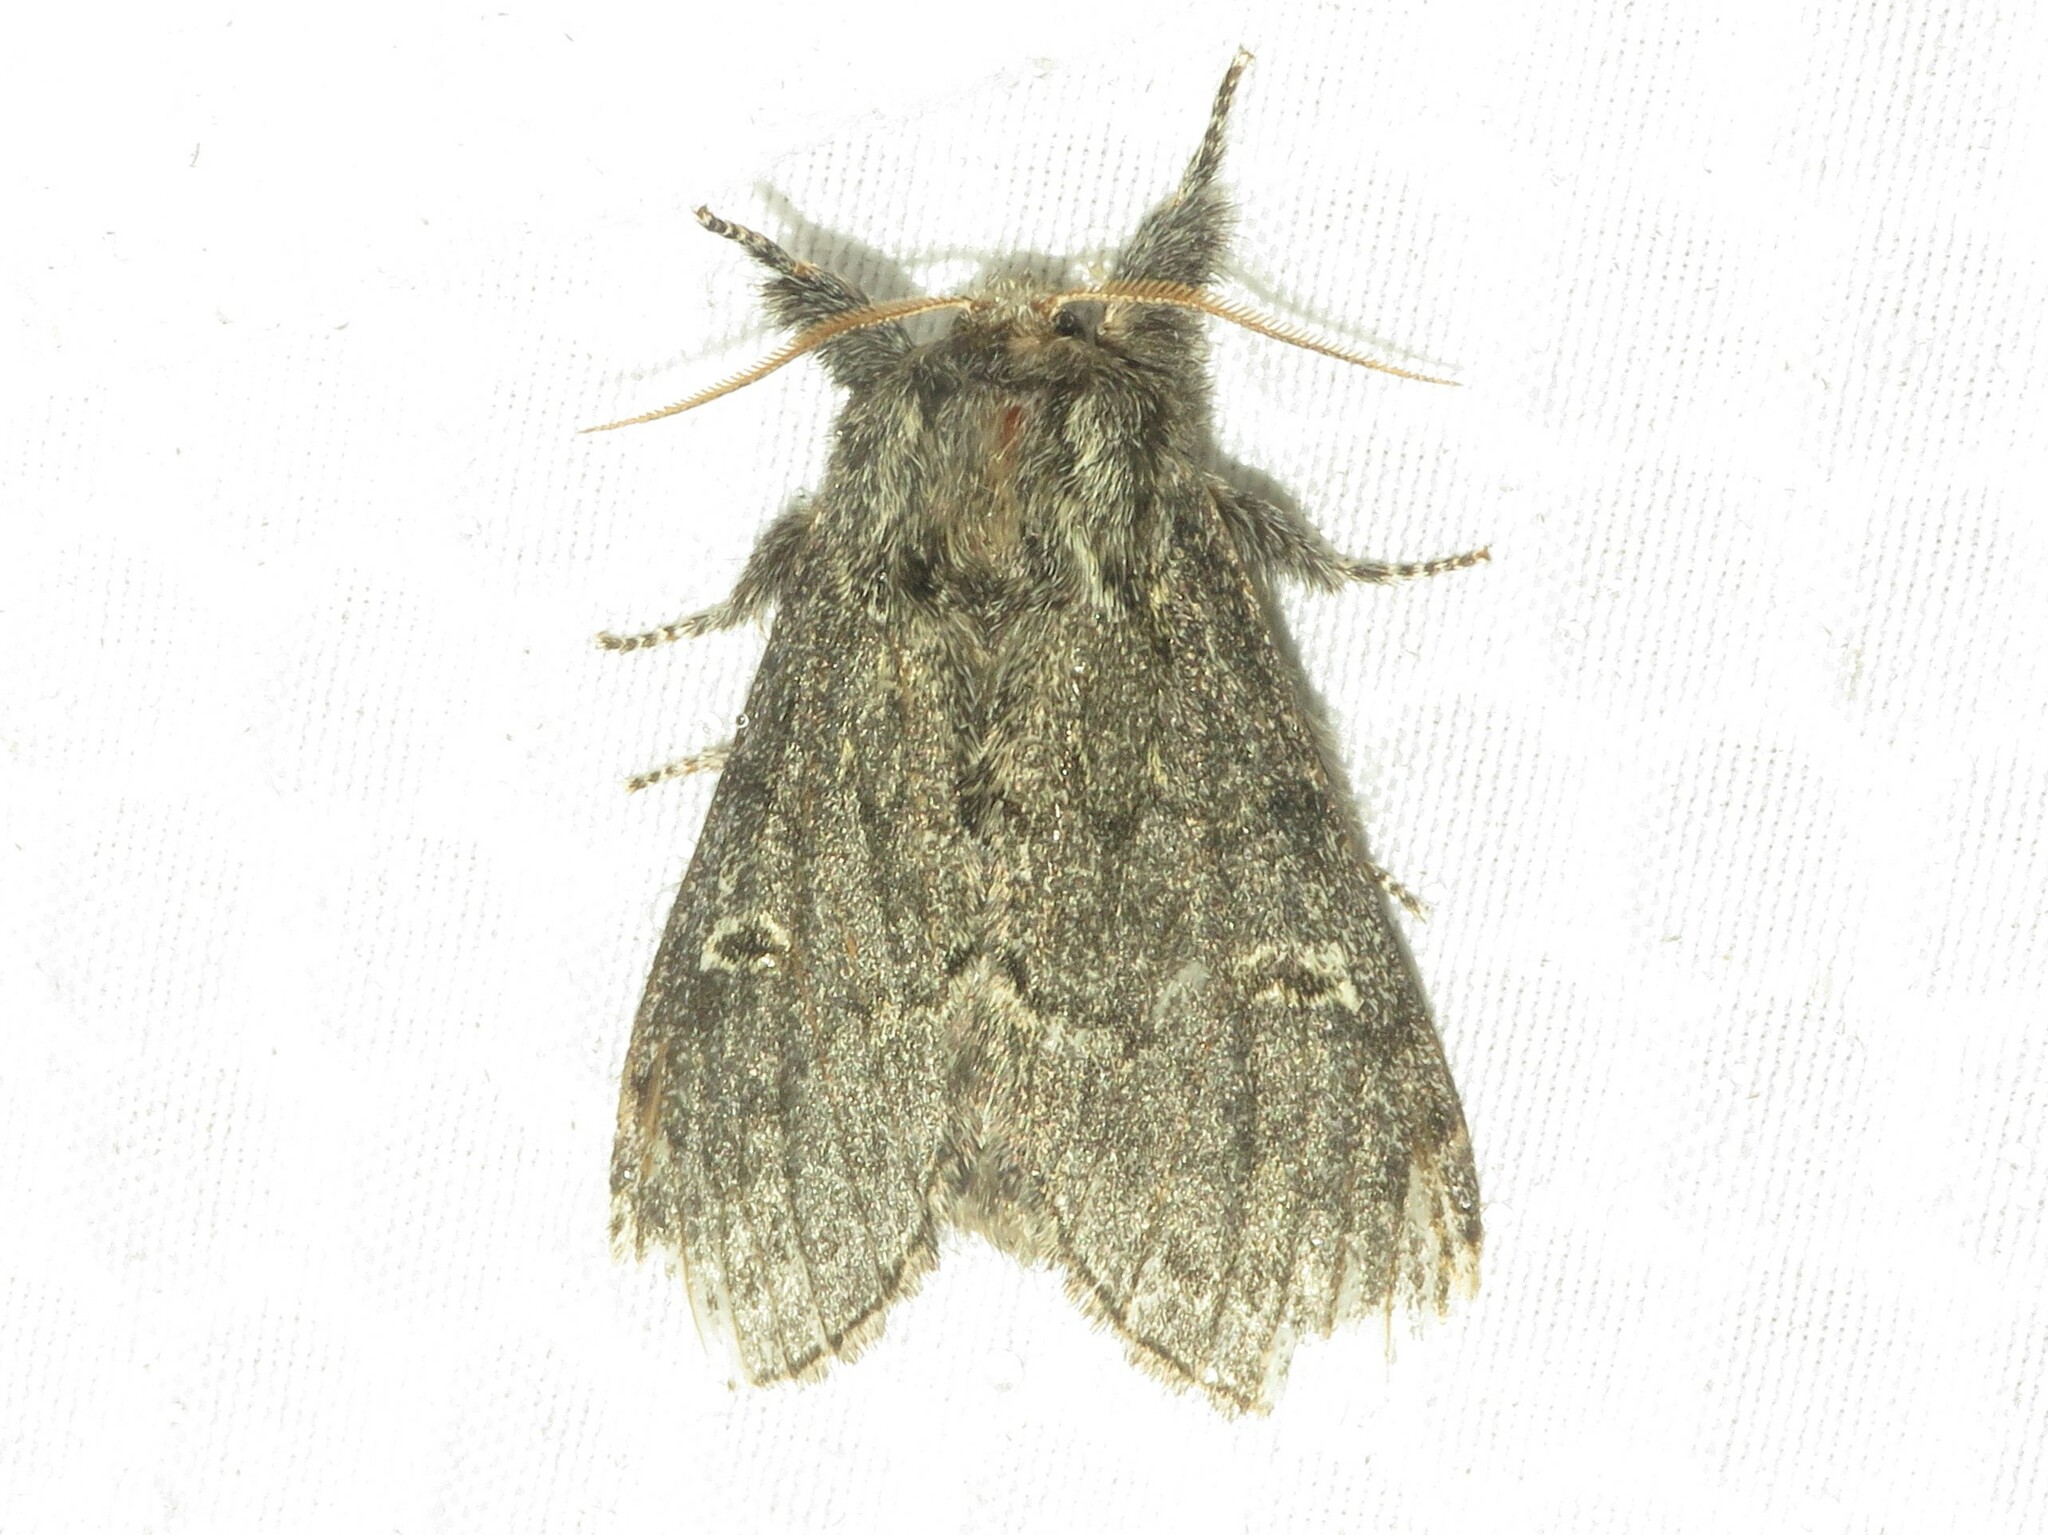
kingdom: Animalia
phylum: Arthropoda
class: Insecta
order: Lepidoptera
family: Notodontidae
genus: Notodonta
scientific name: Notodonta torva
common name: Large dark prominent
